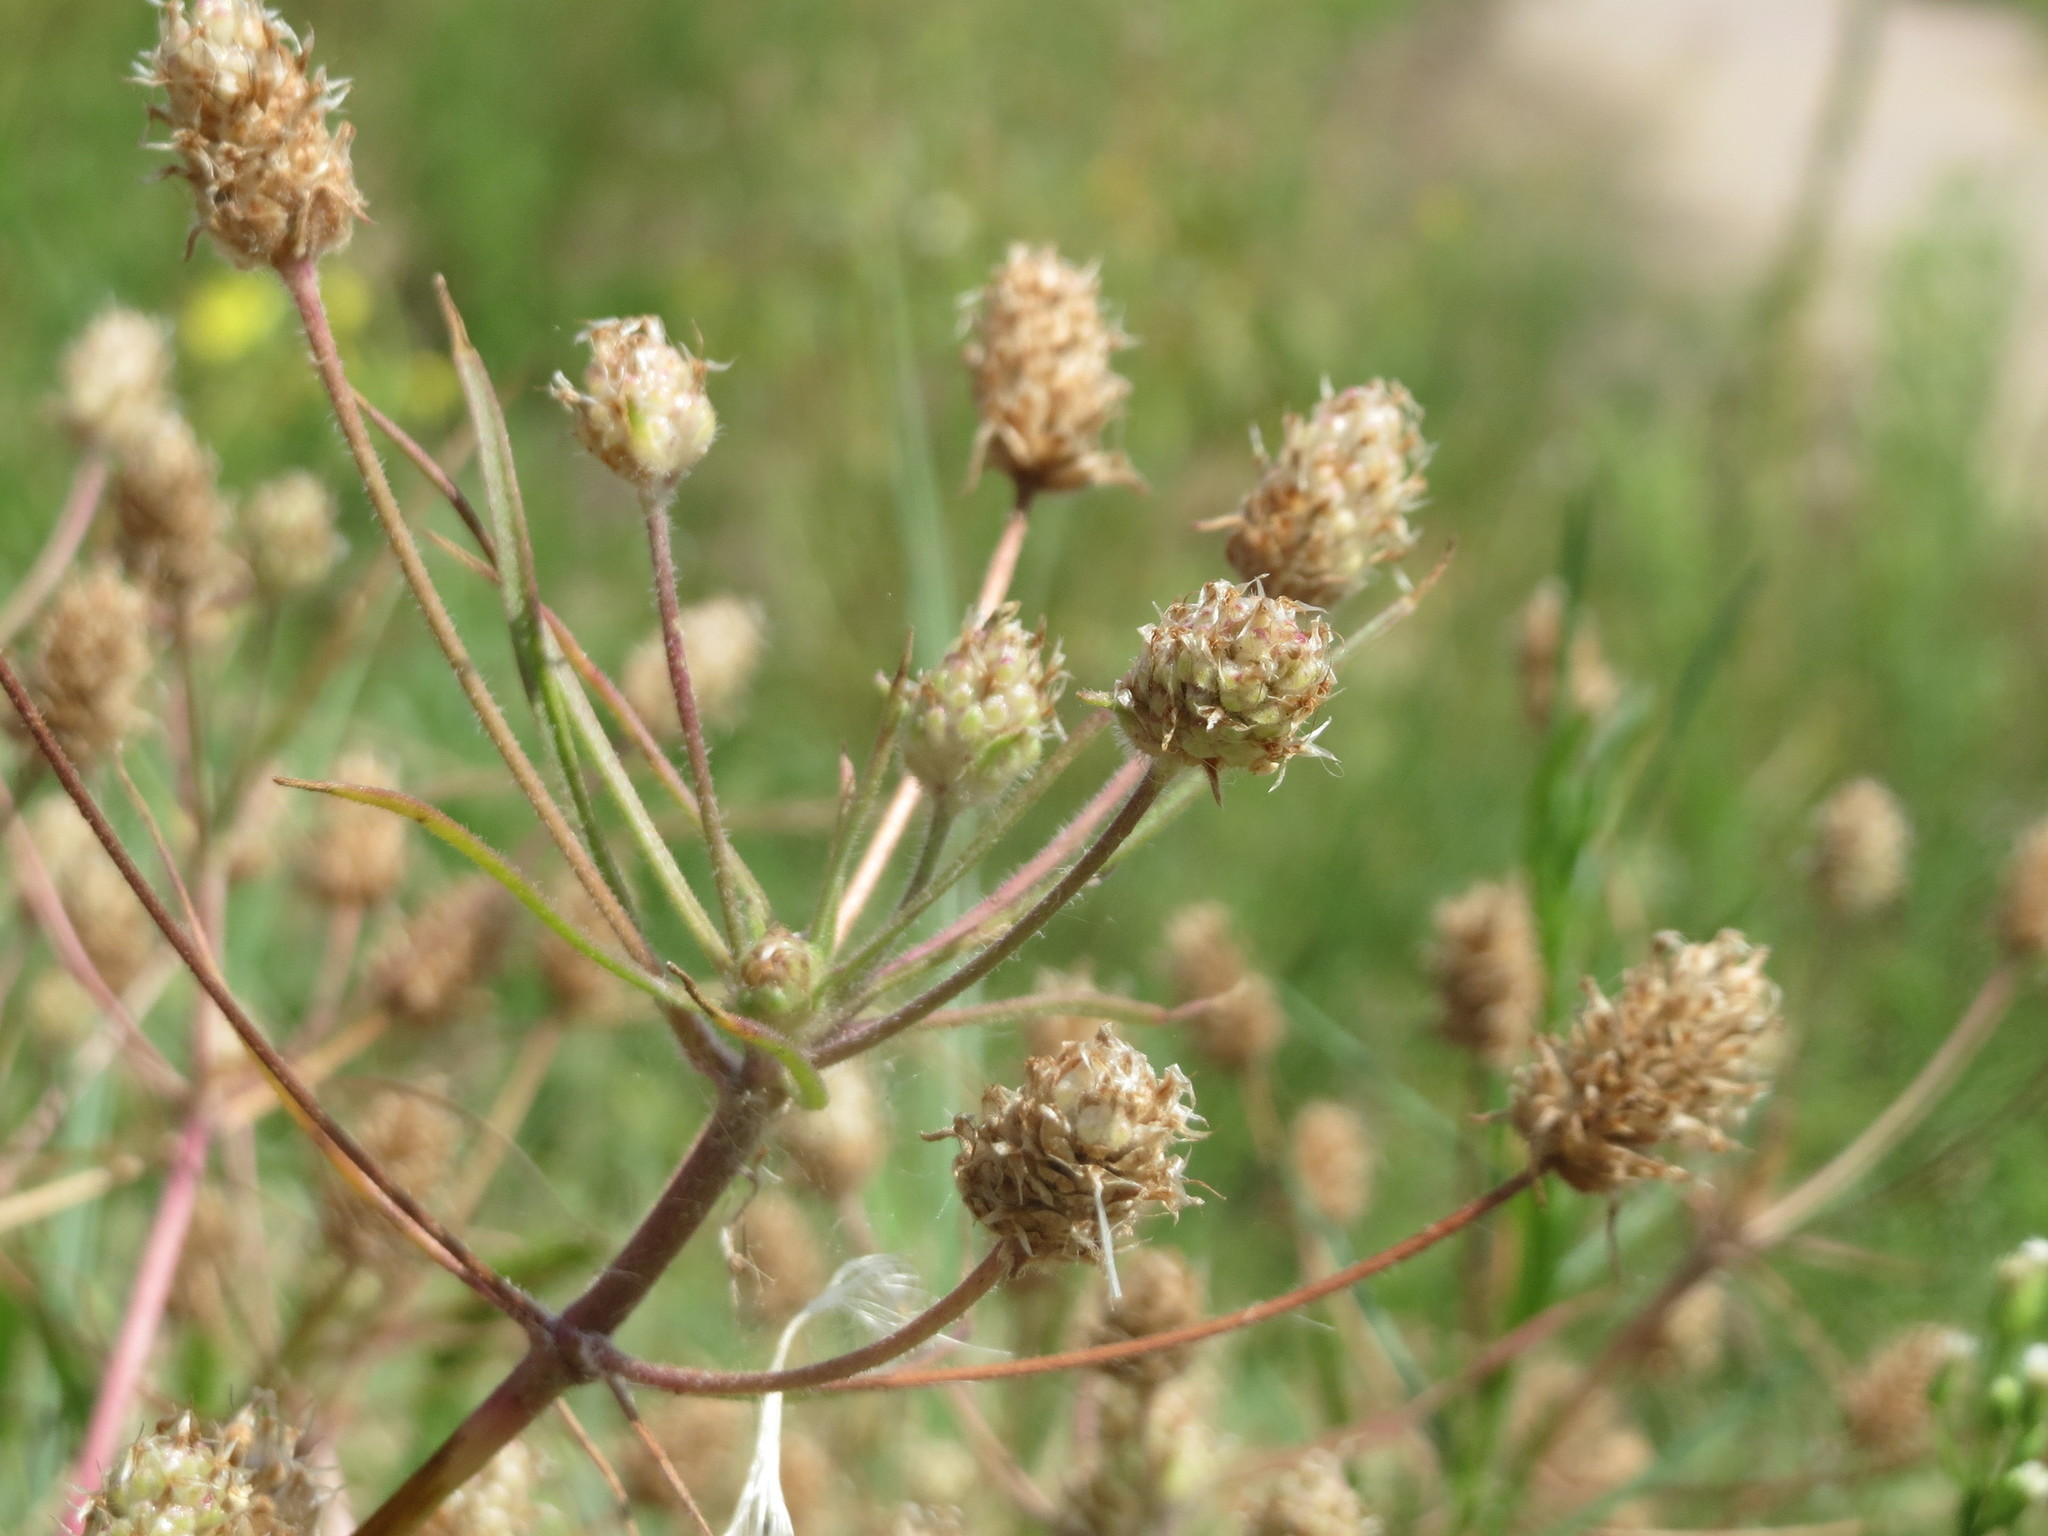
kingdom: Plantae
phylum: Tracheophyta
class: Magnoliopsida
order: Lamiales
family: Plantaginaceae
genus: Plantago
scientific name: Plantago arenaria
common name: Branched plantain
